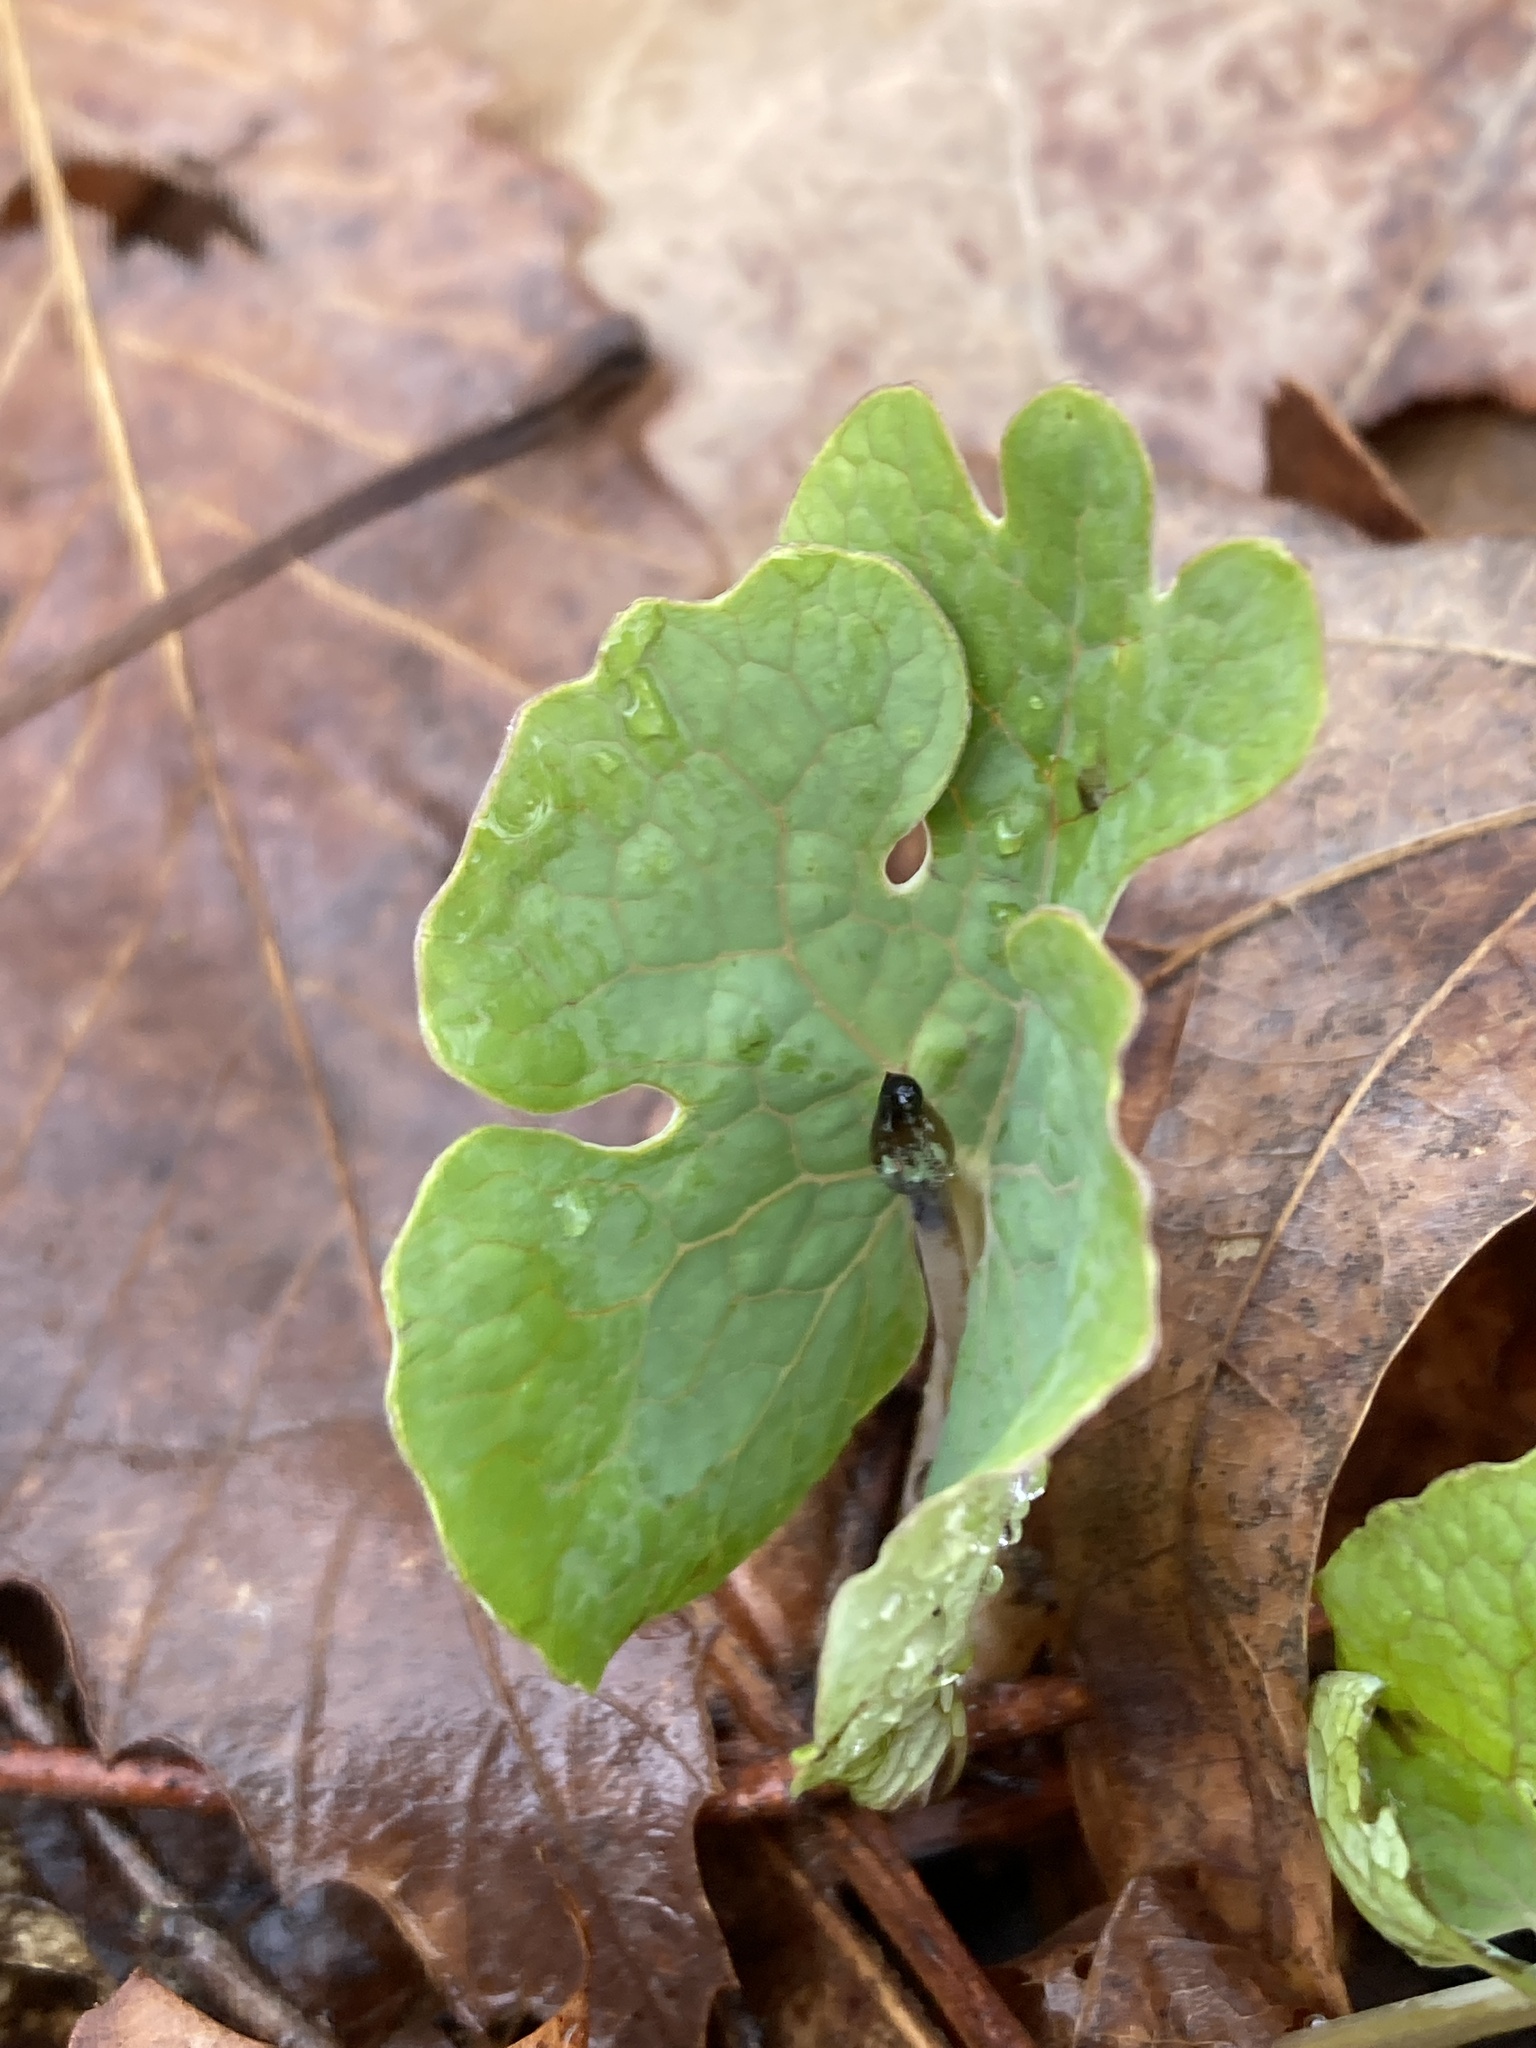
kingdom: Plantae
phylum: Tracheophyta
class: Magnoliopsida
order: Ranunculales
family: Papaveraceae
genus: Sanguinaria
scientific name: Sanguinaria canadensis
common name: Bloodroot
